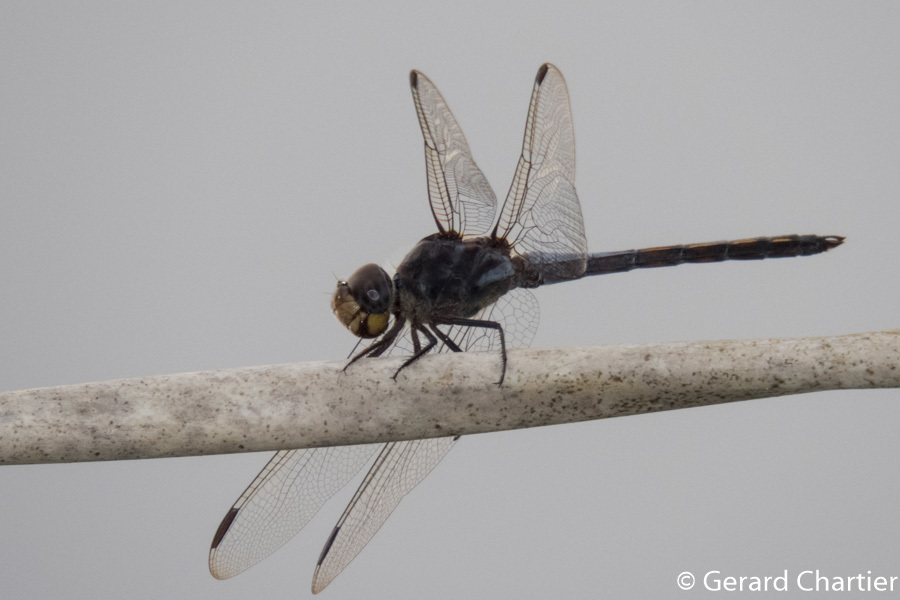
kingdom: Animalia
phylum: Arthropoda
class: Insecta
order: Odonata
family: Libellulidae
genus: Potamarcha
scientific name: Potamarcha congener
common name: Blue chaser
